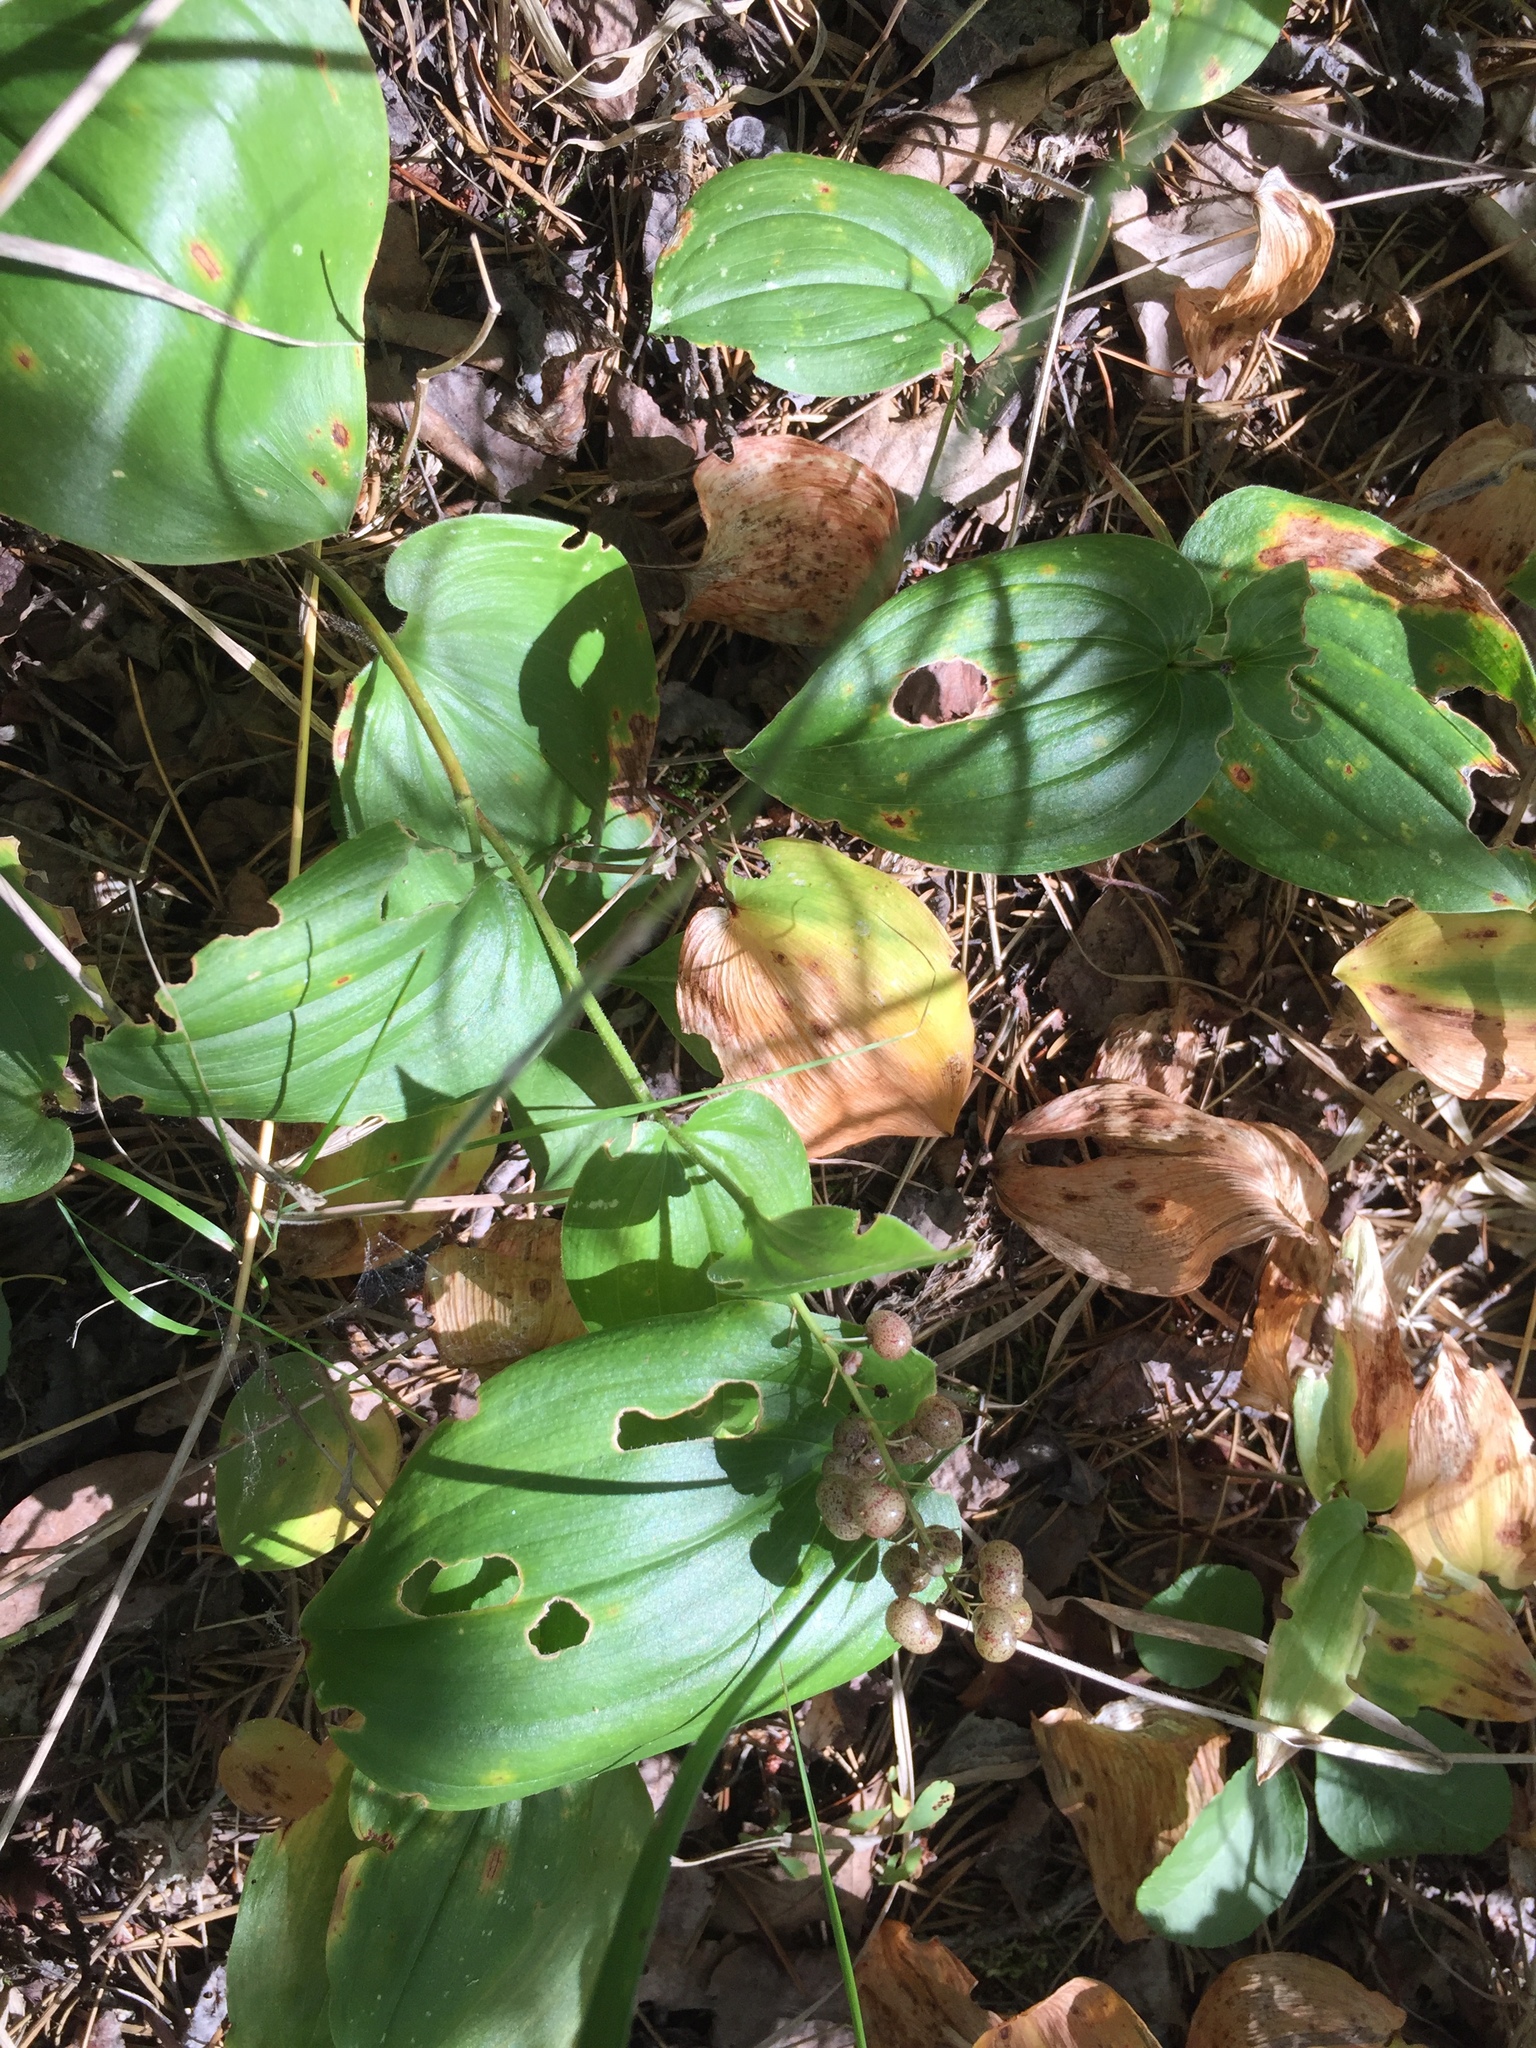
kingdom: Plantae
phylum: Tracheophyta
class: Liliopsida
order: Asparagales
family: Asparagaceae
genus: Maianthemum
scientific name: Maianthemum canadense
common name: False lily-of-the-valley
